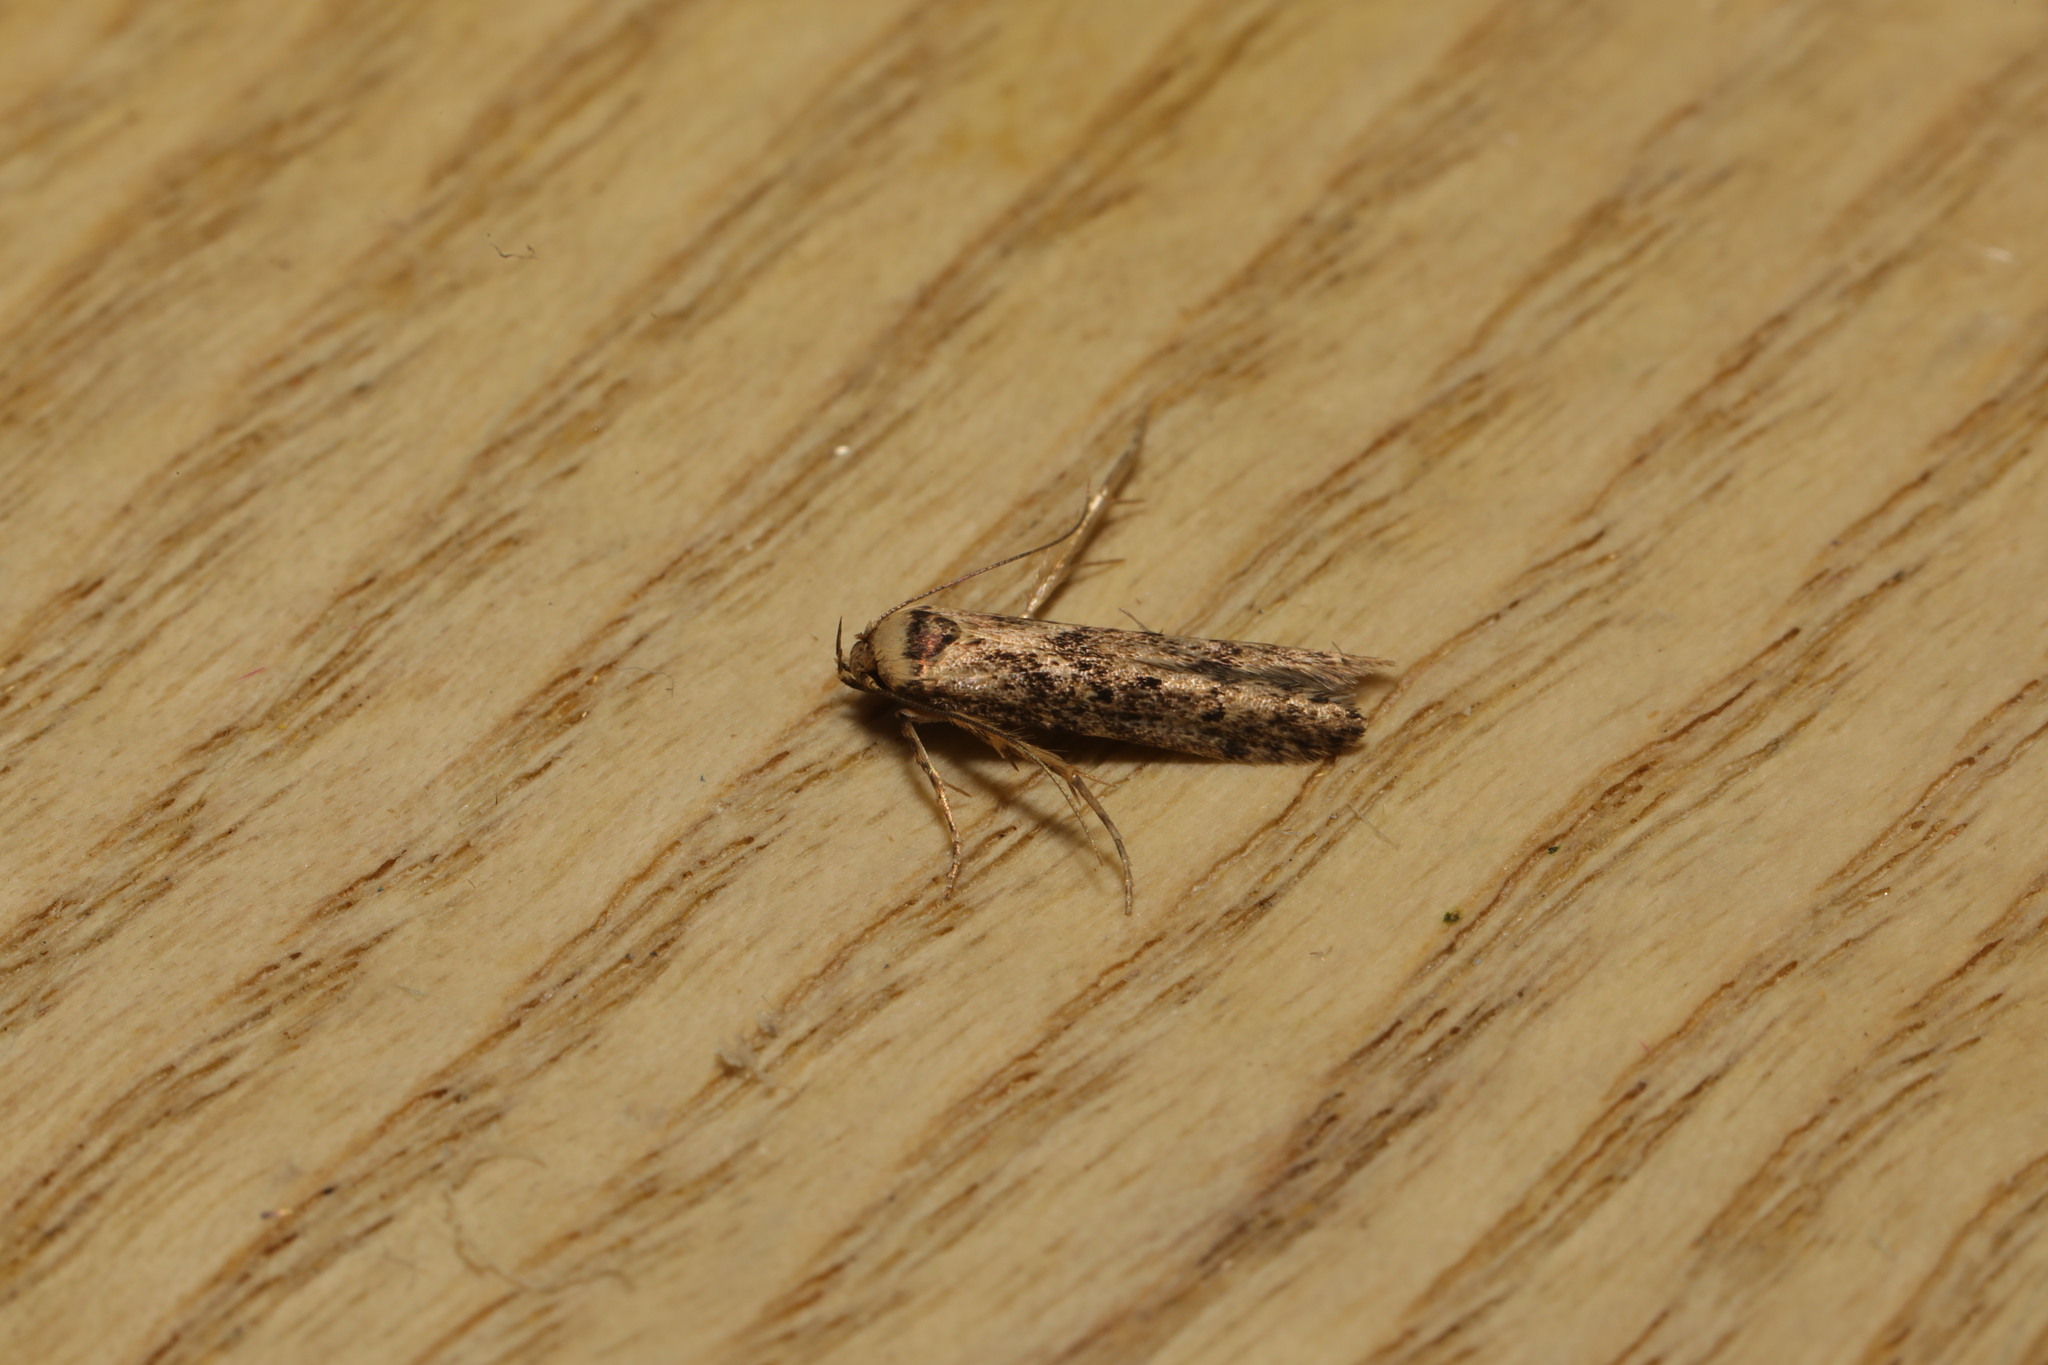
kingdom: Animalia
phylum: Arthropoda
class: Insecta
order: Lepidoptera
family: Blastobasidae
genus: Blastobasis
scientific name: Blastobasis adustella
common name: Dingy dowd
